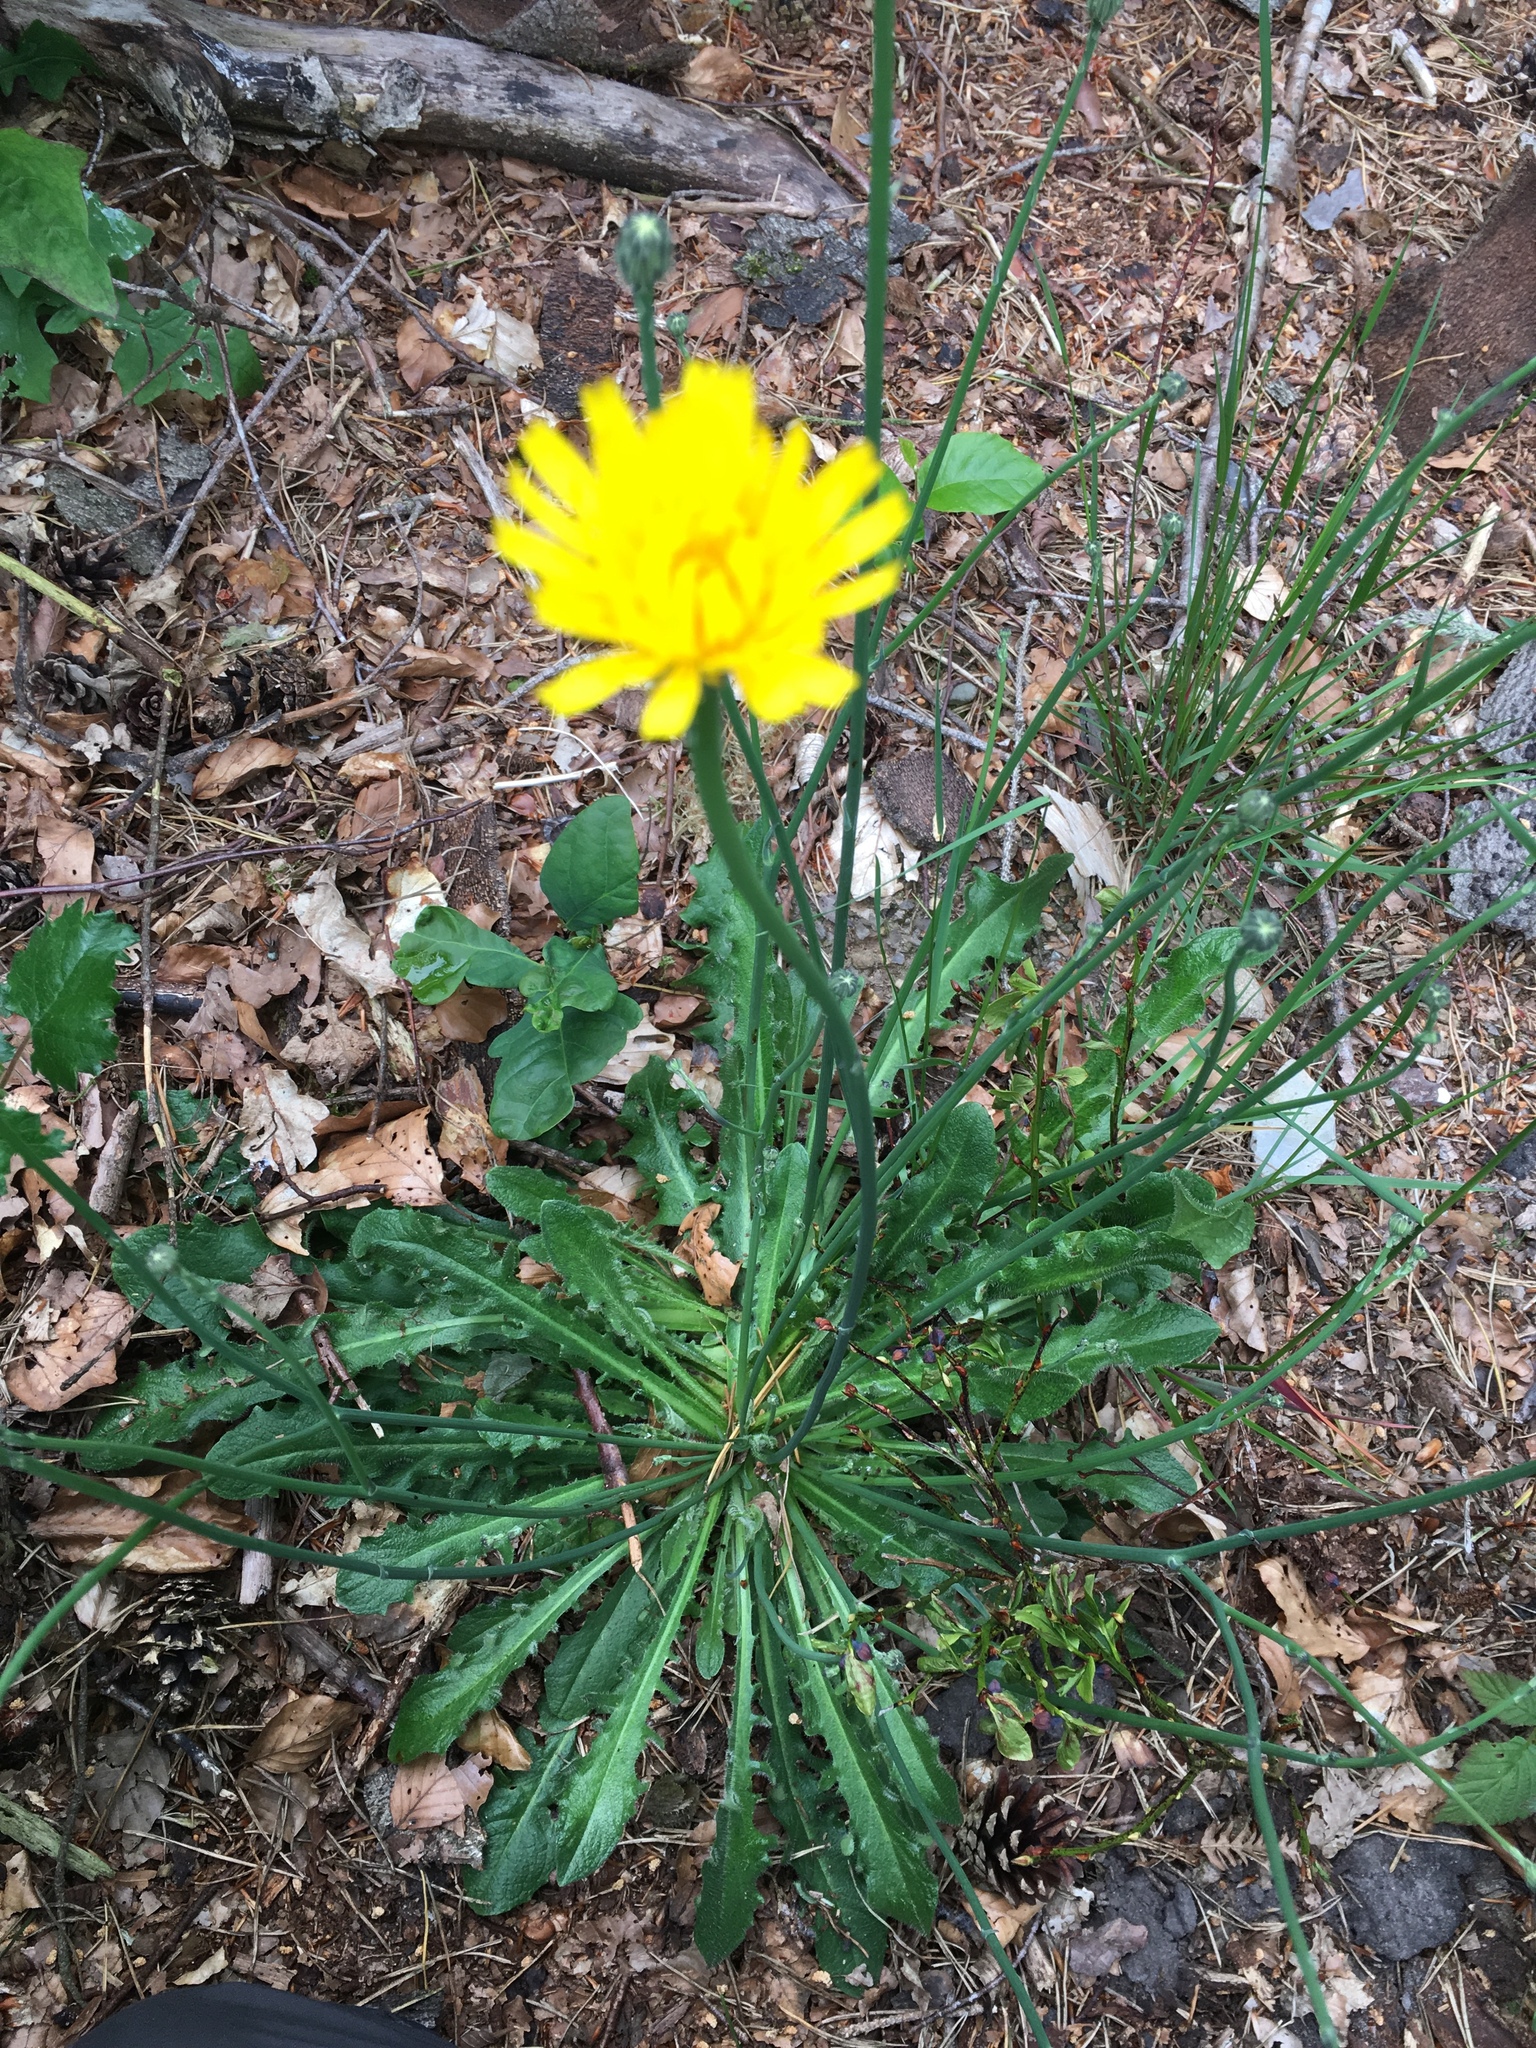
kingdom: Plantae
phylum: Tracheophyta
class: Magnoliopsida
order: Asterales
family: Asteraceae
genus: Hypochaeris
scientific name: Hypochaeris radicata
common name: Flatweed
